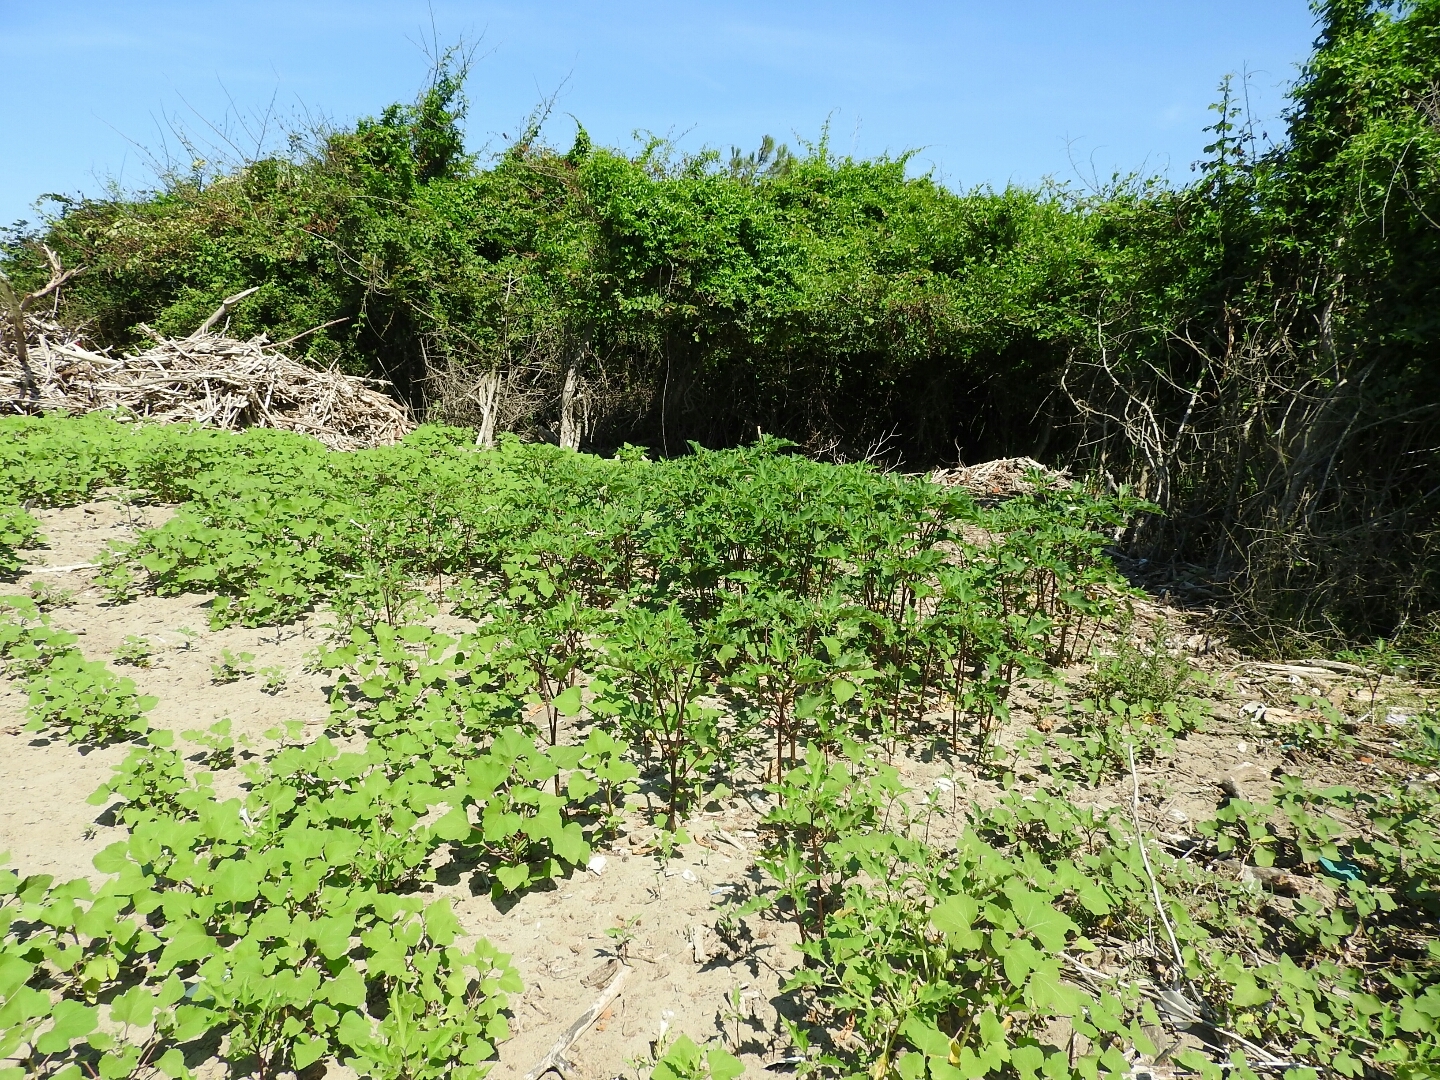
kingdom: Plantae
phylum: Tracheophyta
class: Magnoliopsida
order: Solanales
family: Solanaceae
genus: Datura
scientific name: Datura stramonium
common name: Thorn-apple
